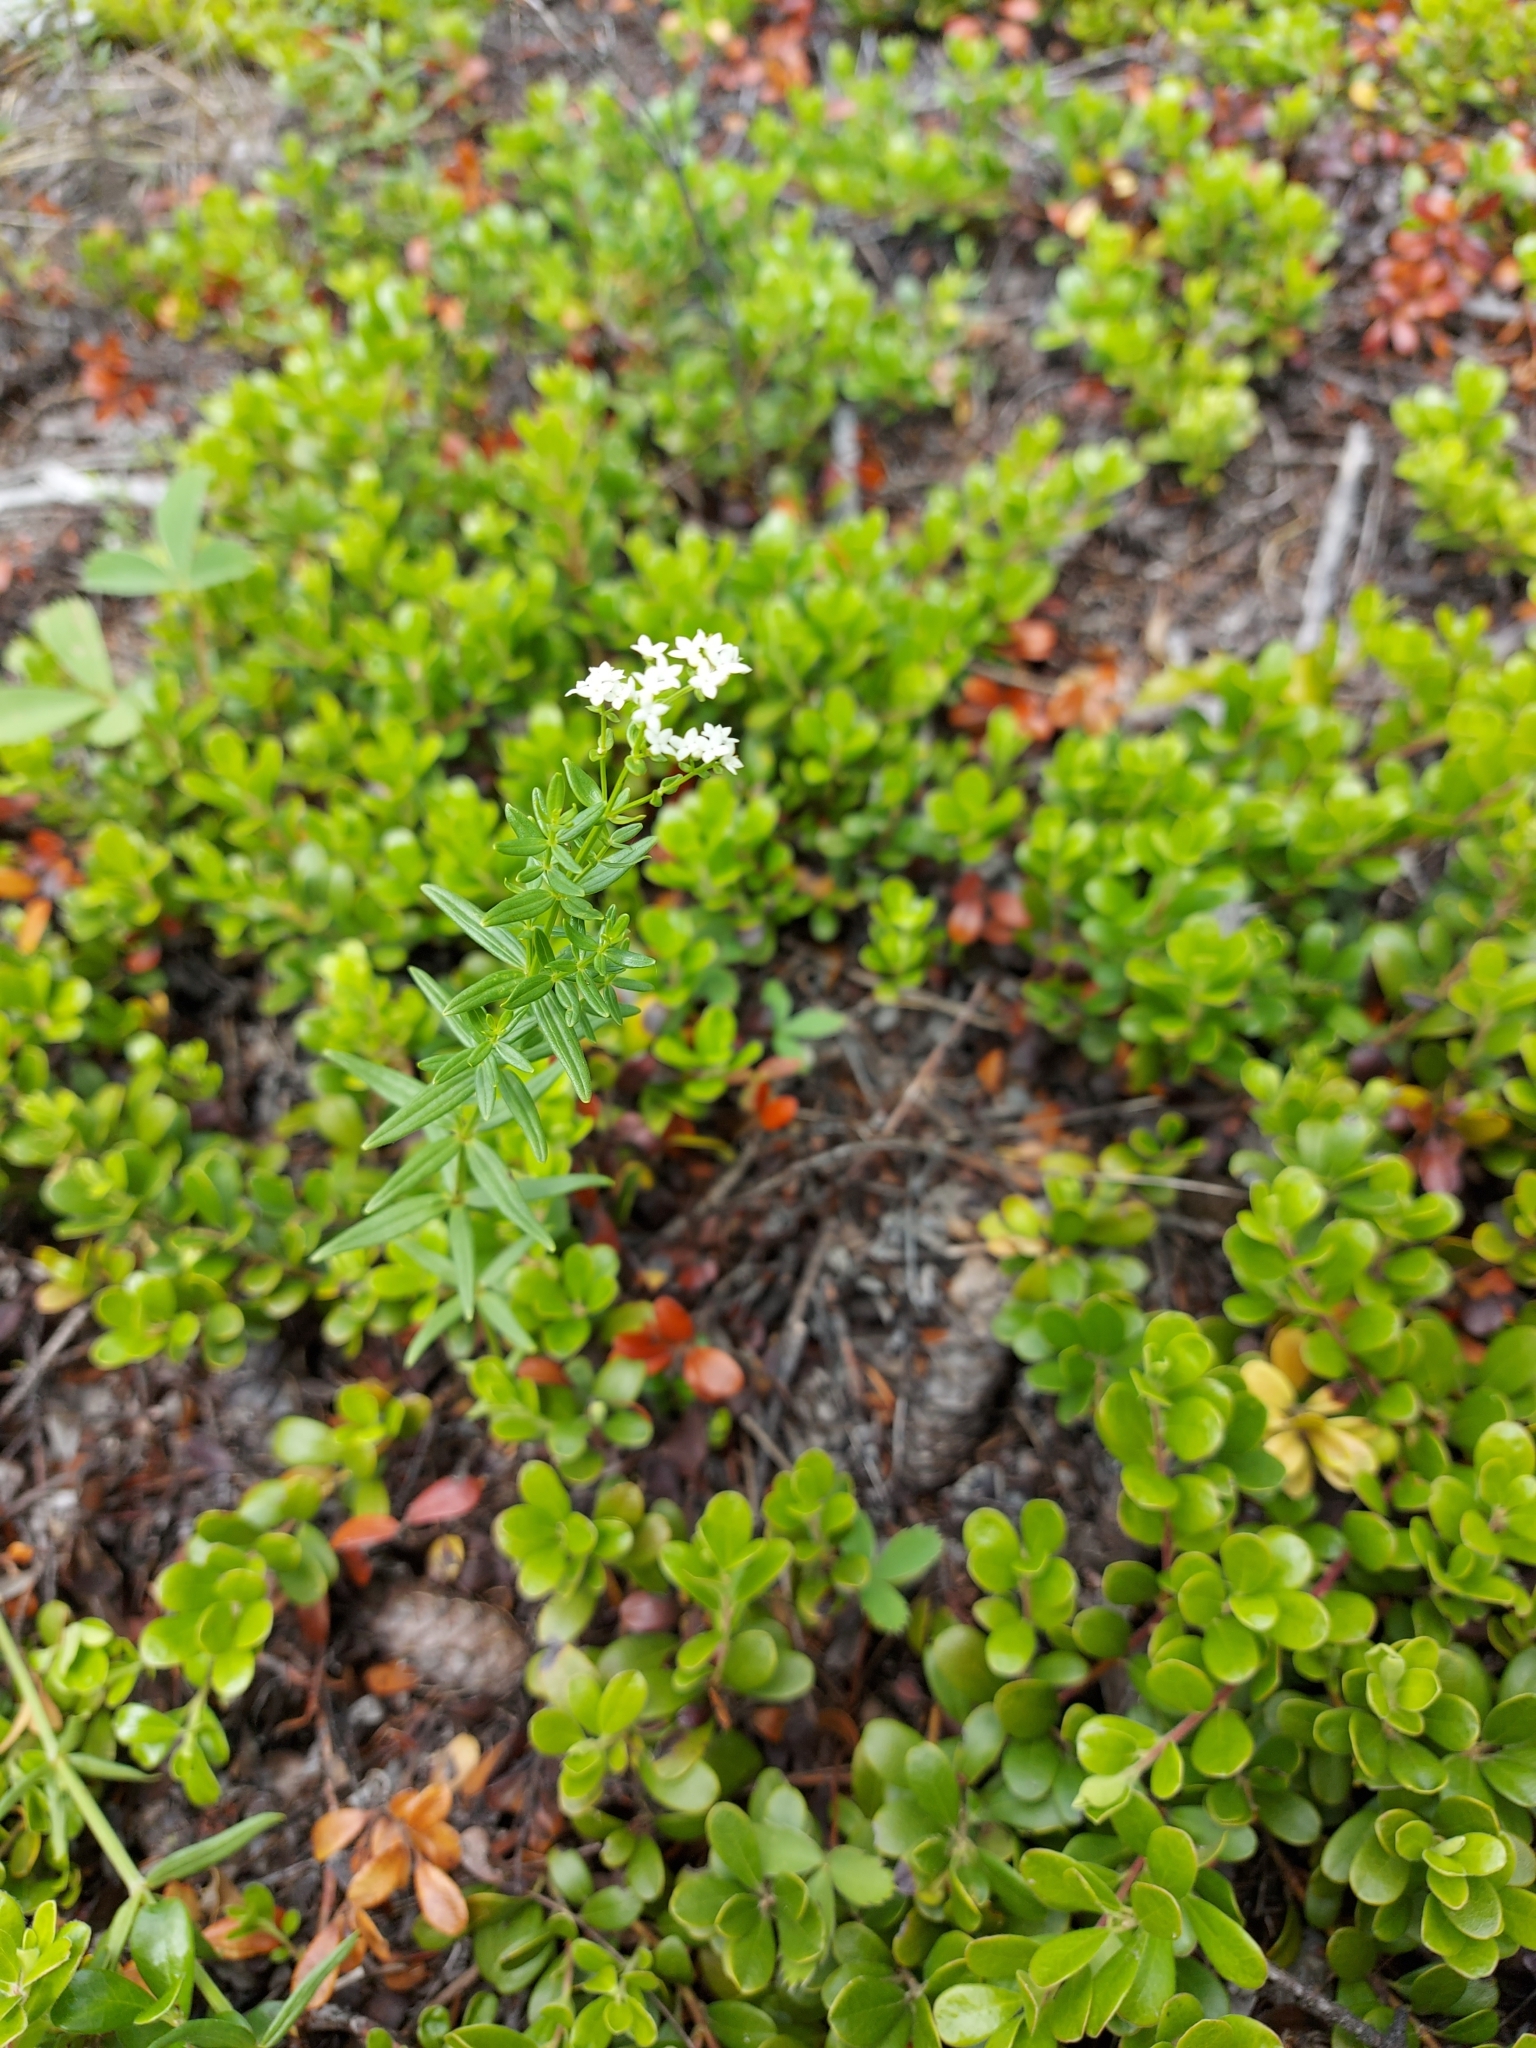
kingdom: Plantae
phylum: Tracheophyta
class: Magnoliopsida
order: Gentianales
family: Rubiaceae
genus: Galium
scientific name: Galium boreale
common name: Northern bedstraw
